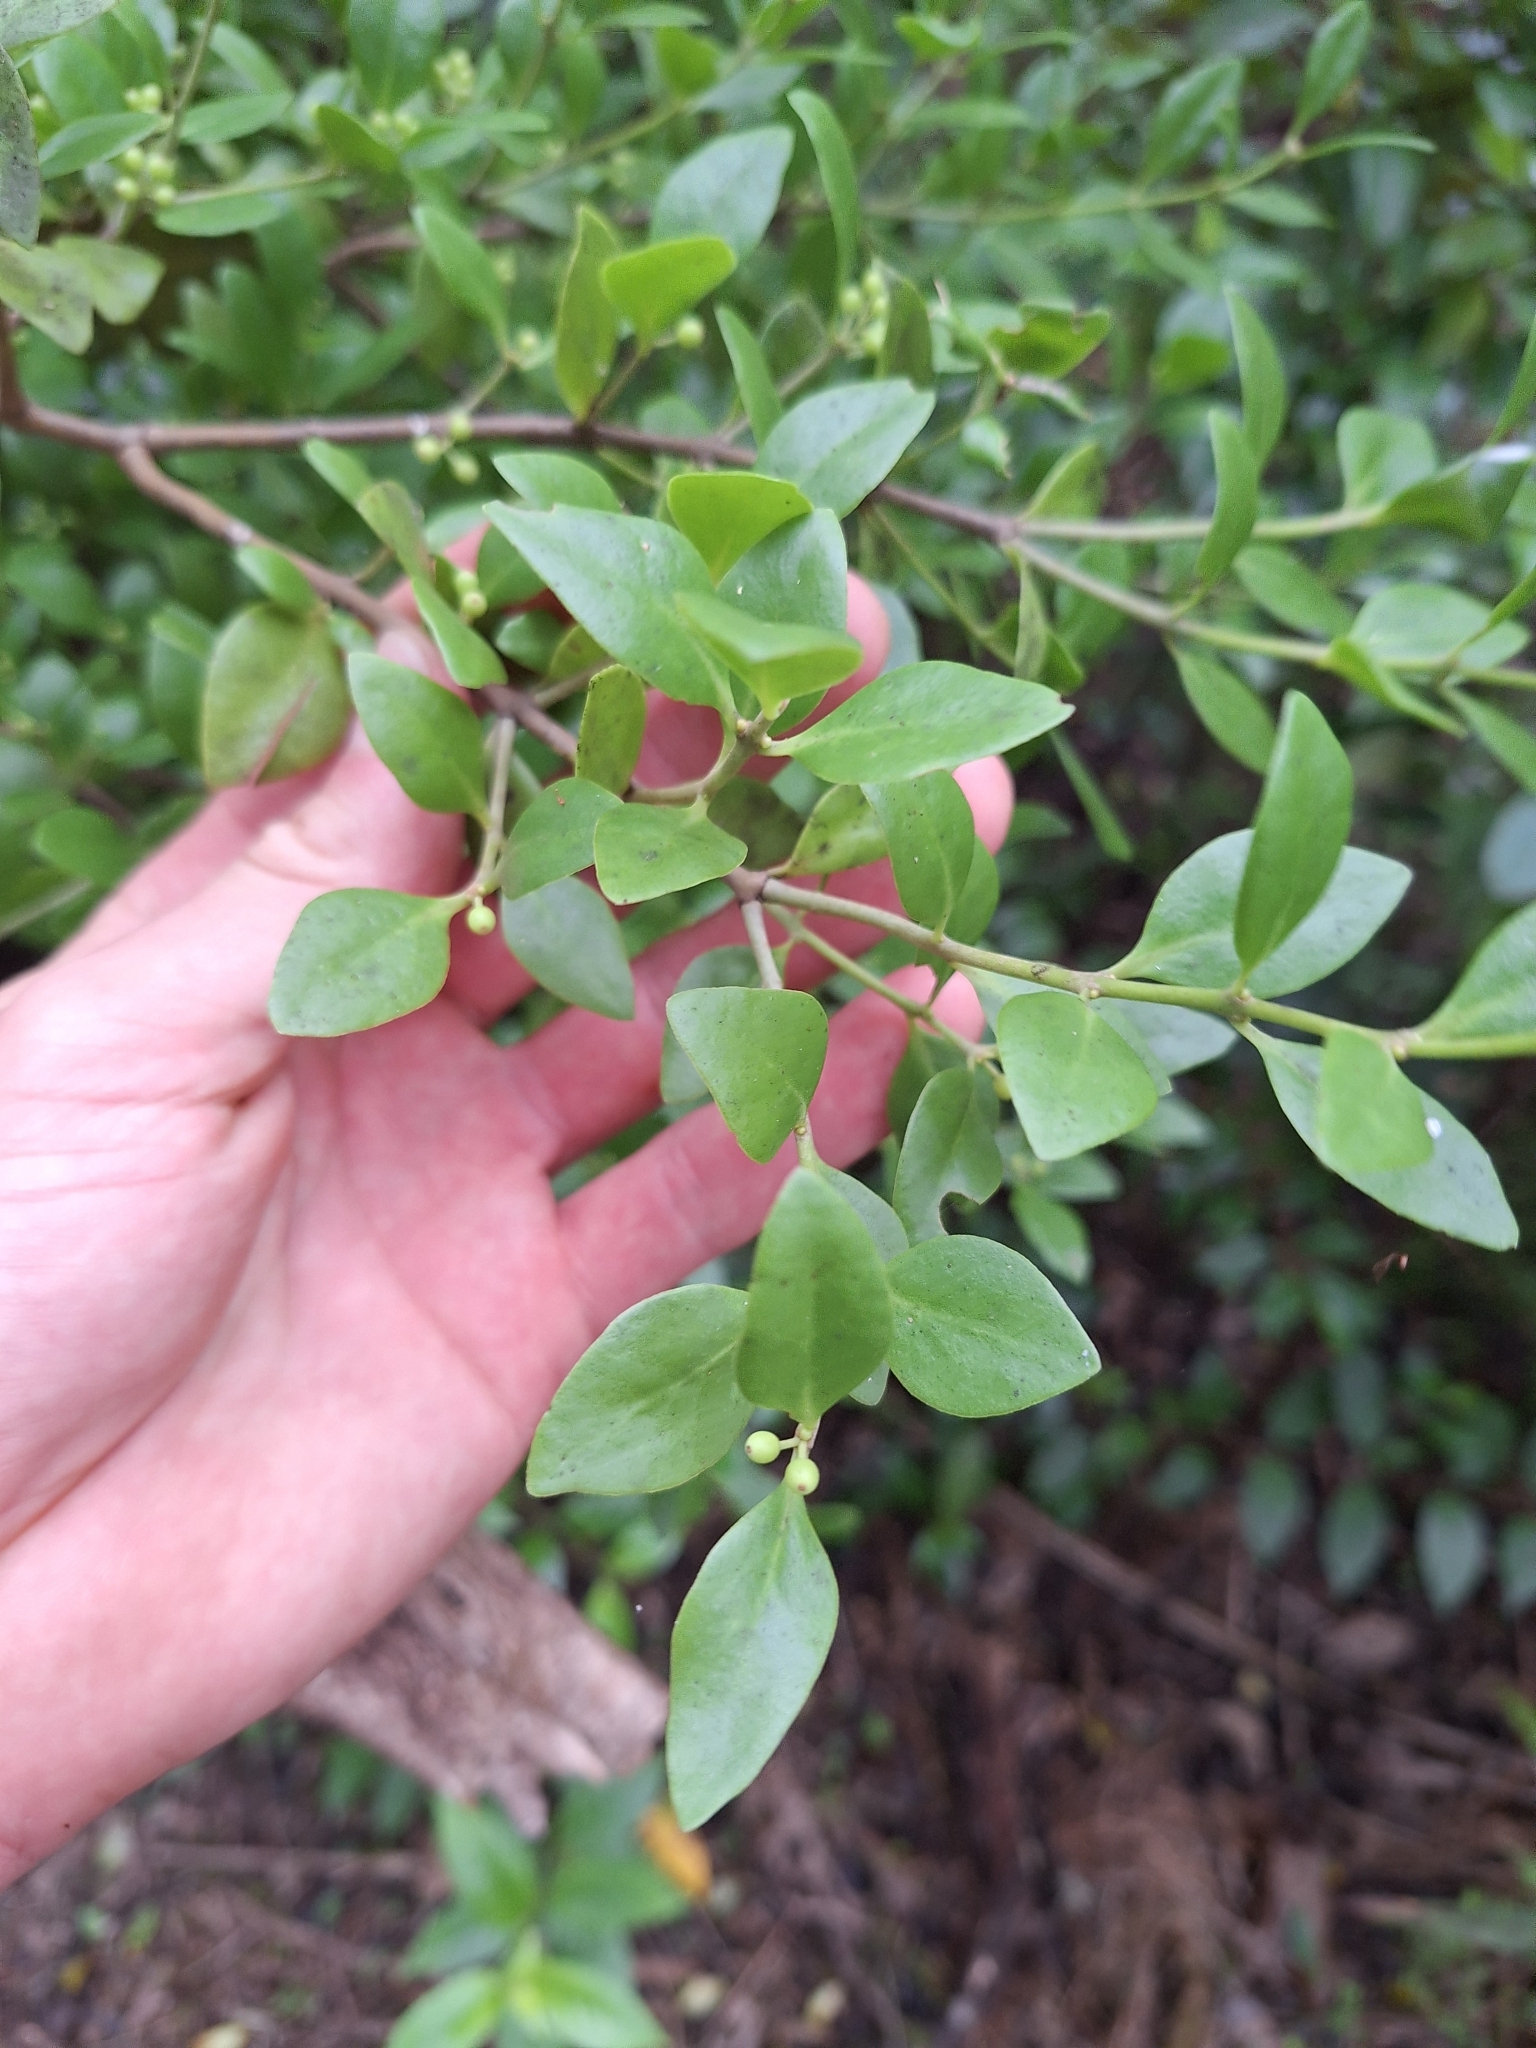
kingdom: Plantae
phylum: Tracheophyta
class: Magnoliopsida
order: Santalales
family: Loranthaceae
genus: Tupeia
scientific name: Tupeia antarctica
